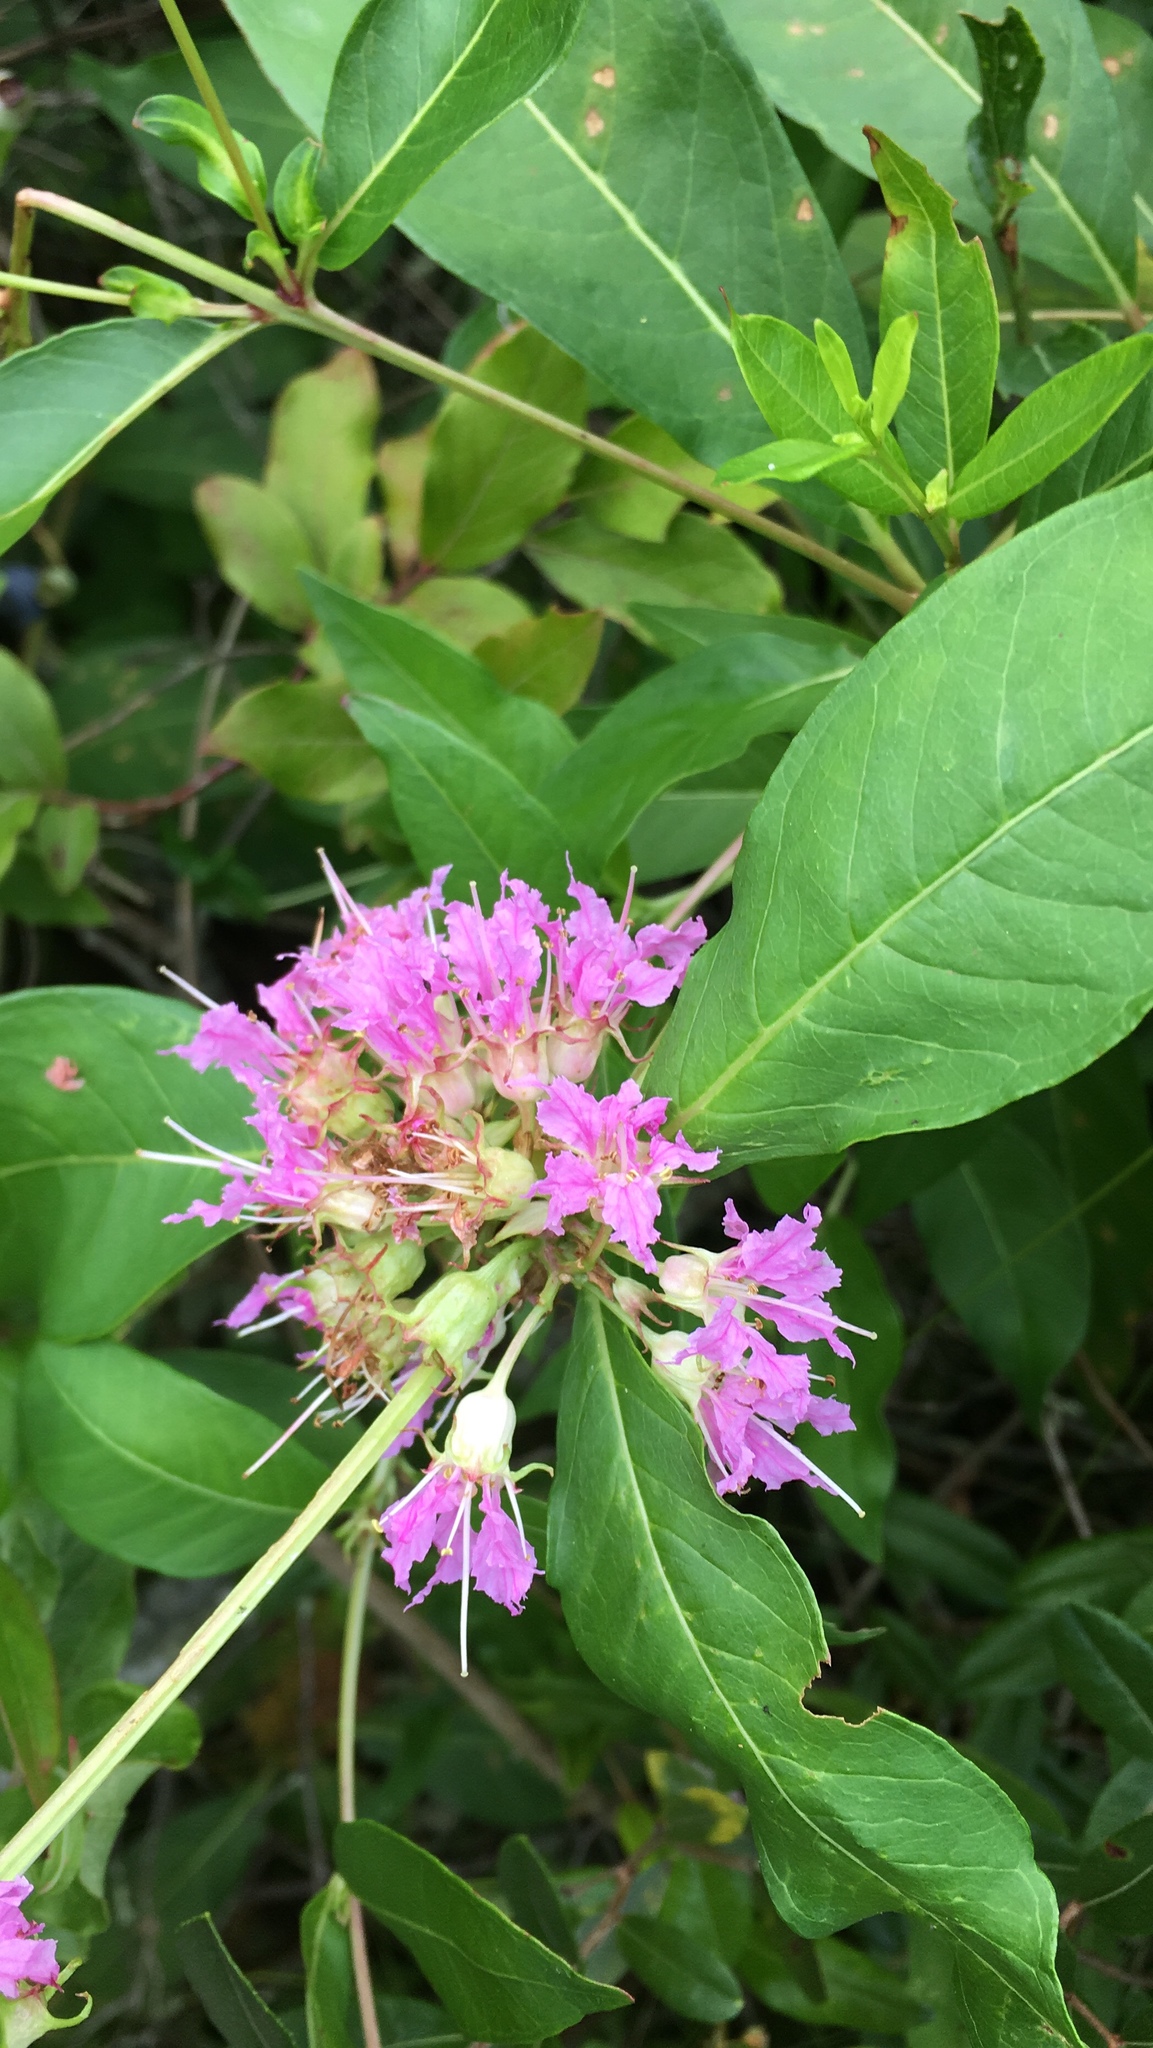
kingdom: Plantae
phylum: Tracheophyta
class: Magnoliopsida
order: Myrtales
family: Lythraceae
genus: Decodon
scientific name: Decodon verticillatus
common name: Hairy swamp loosestrife
